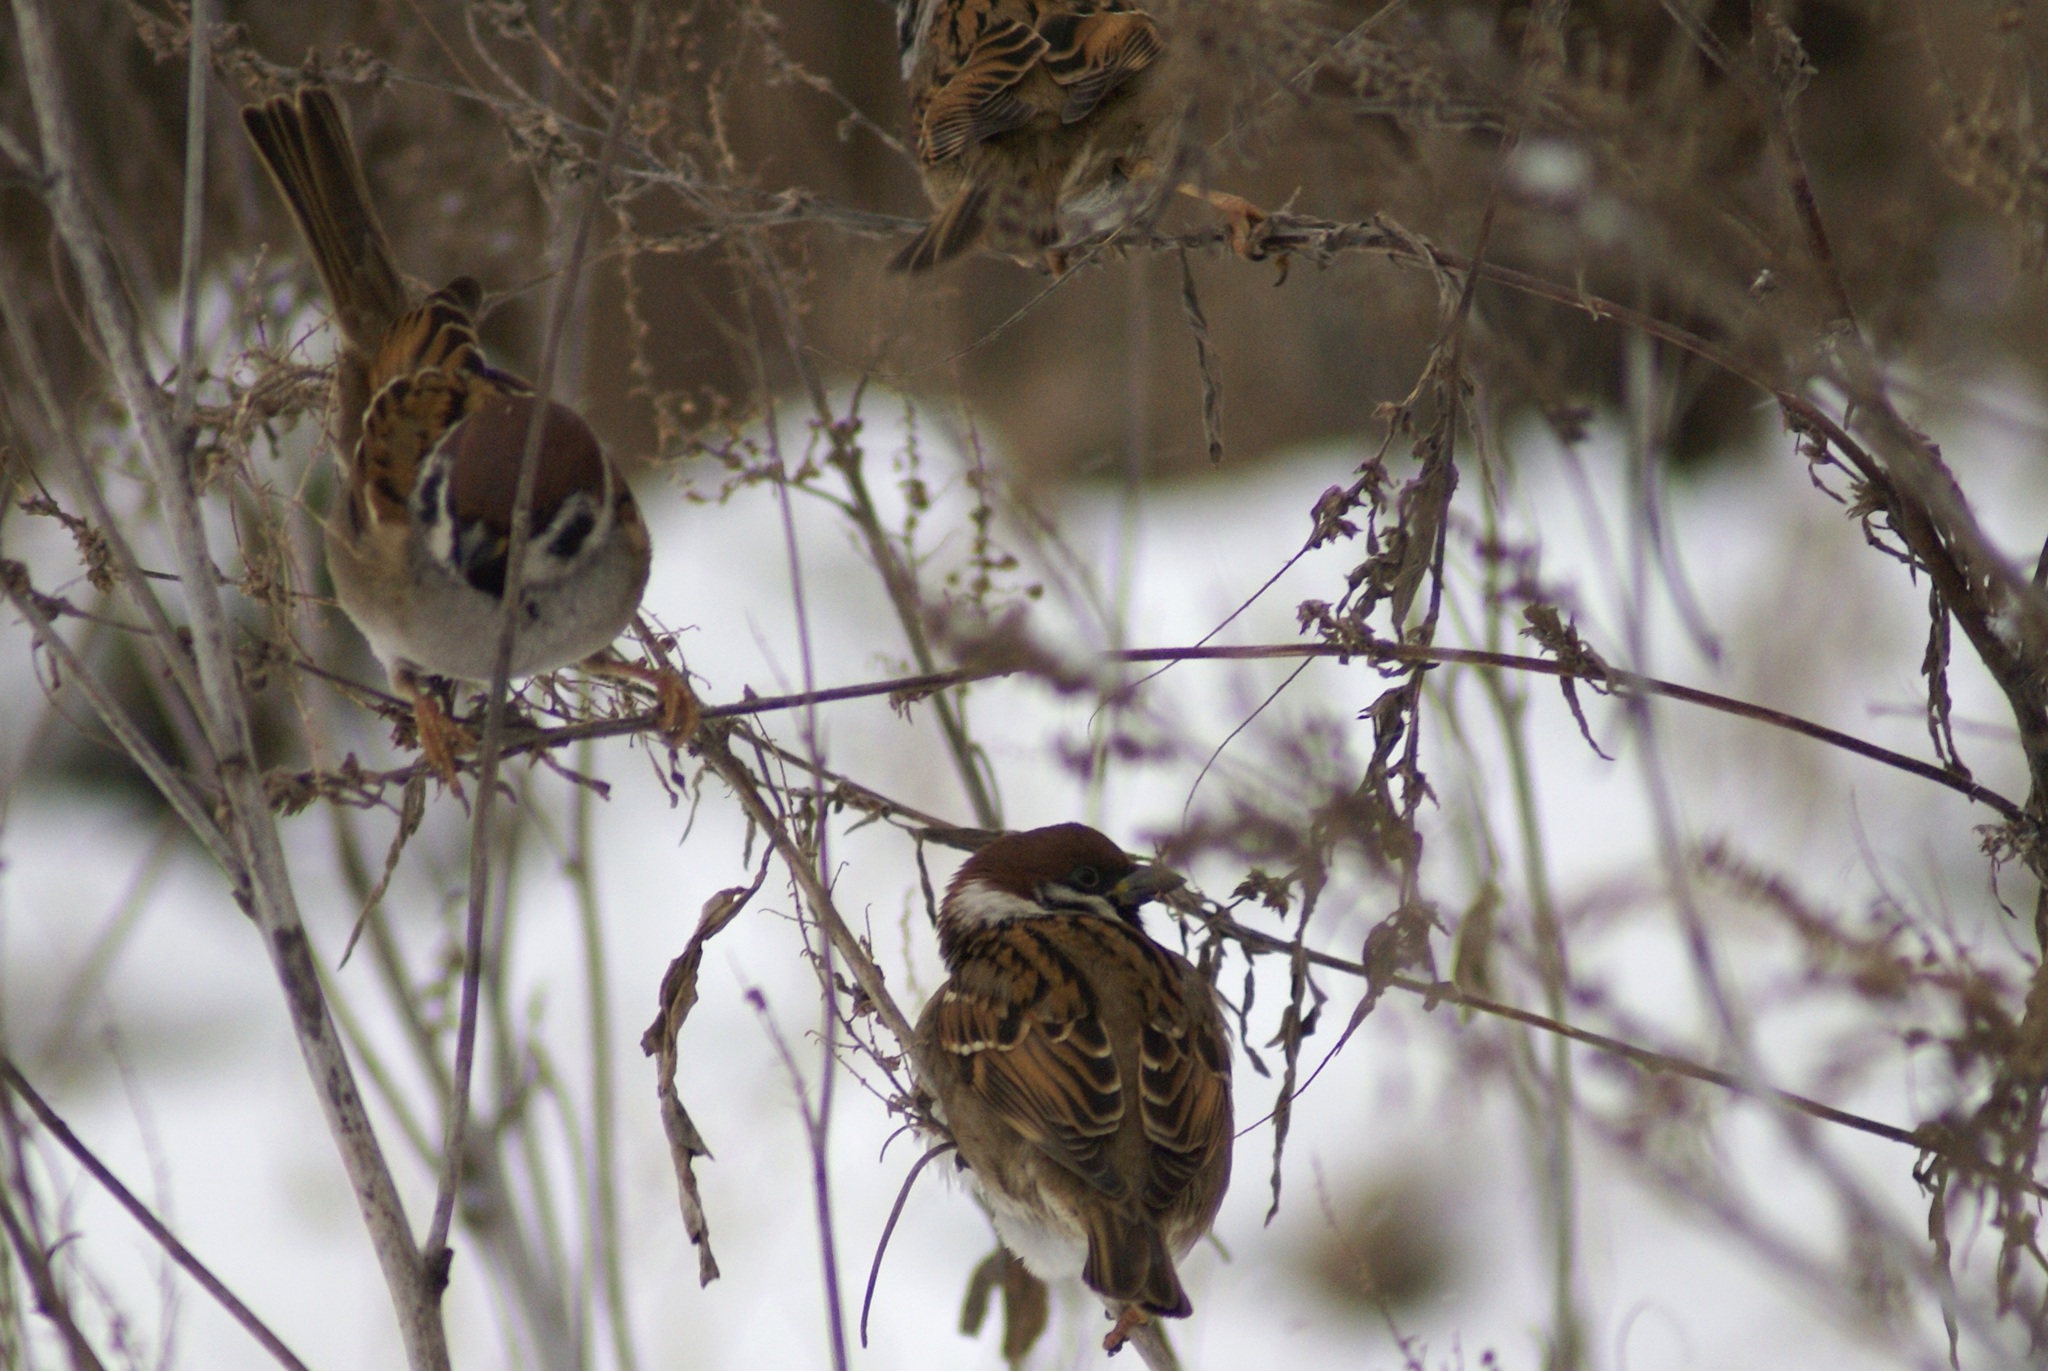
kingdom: Animalia
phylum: Chordata
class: Aves
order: Passeriformes
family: Passeridae
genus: Passer
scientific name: Passer montanus
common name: Eurasian tree sparrow
